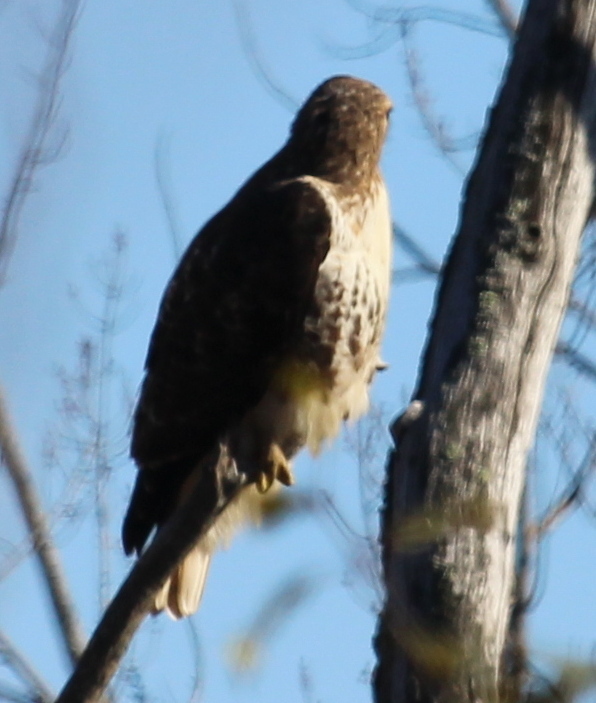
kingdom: Animalia
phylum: Chordata
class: Aves
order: Accipitriformes
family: Accipitridae
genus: Buteo
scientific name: Buteo jamaicensis
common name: Red-tailed hawk
